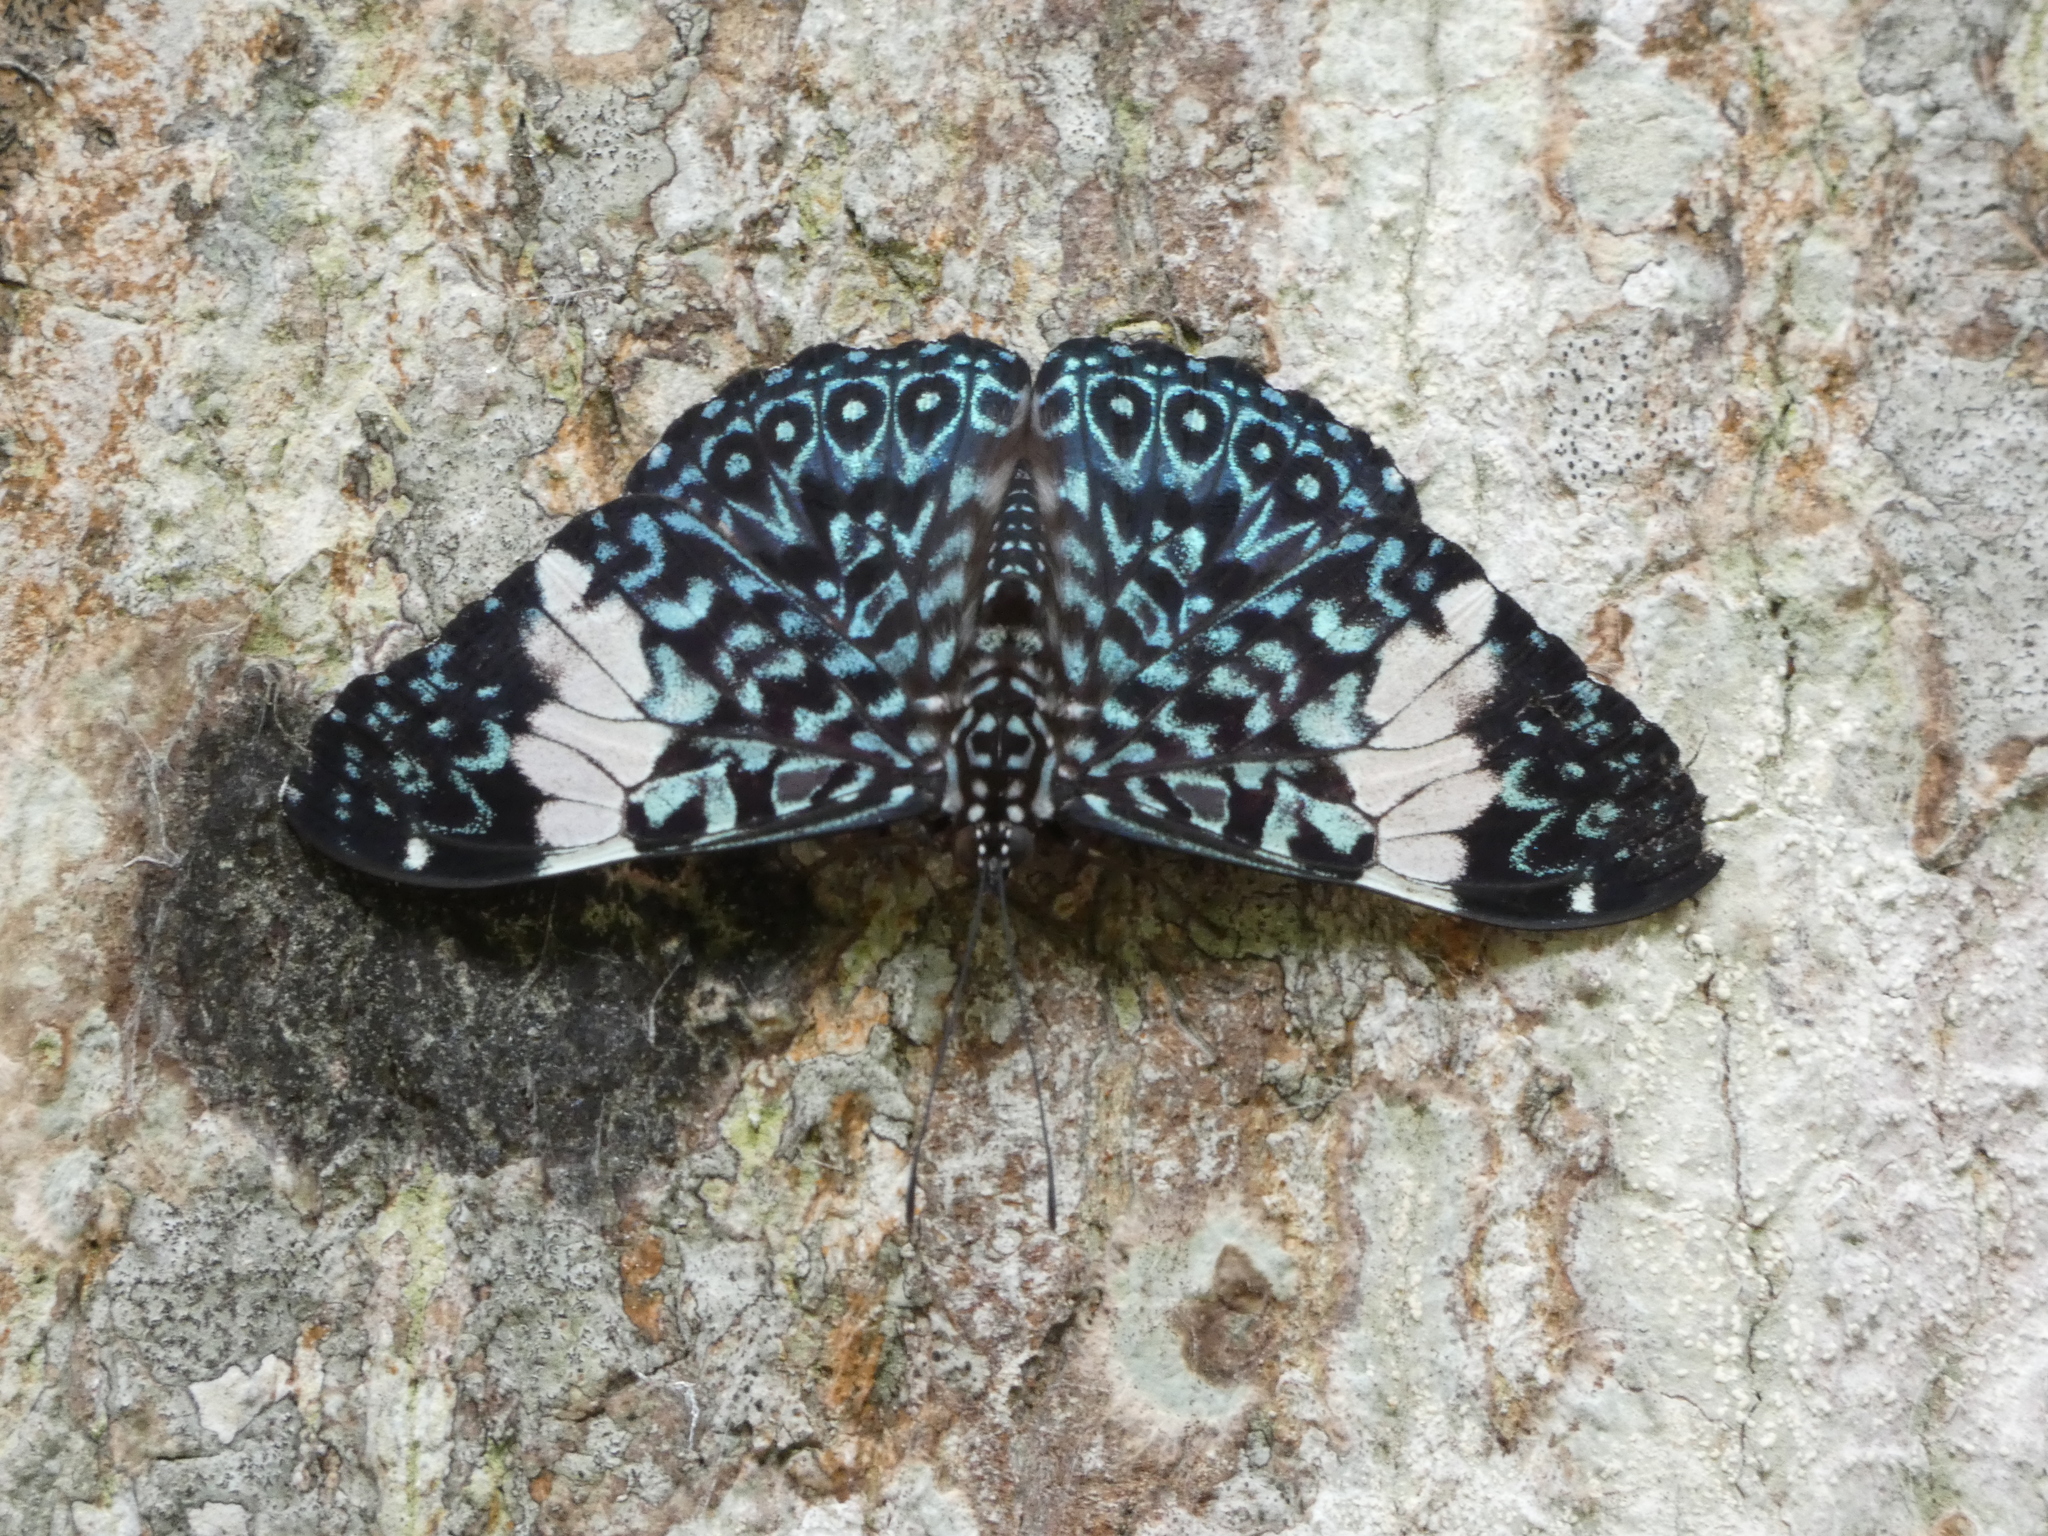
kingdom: Animalia
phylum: Arthropoda
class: Insecta
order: Lepidoptera
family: Nymphalidae
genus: Hamadryas
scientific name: Hamadryas amphinome
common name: Red cracker
